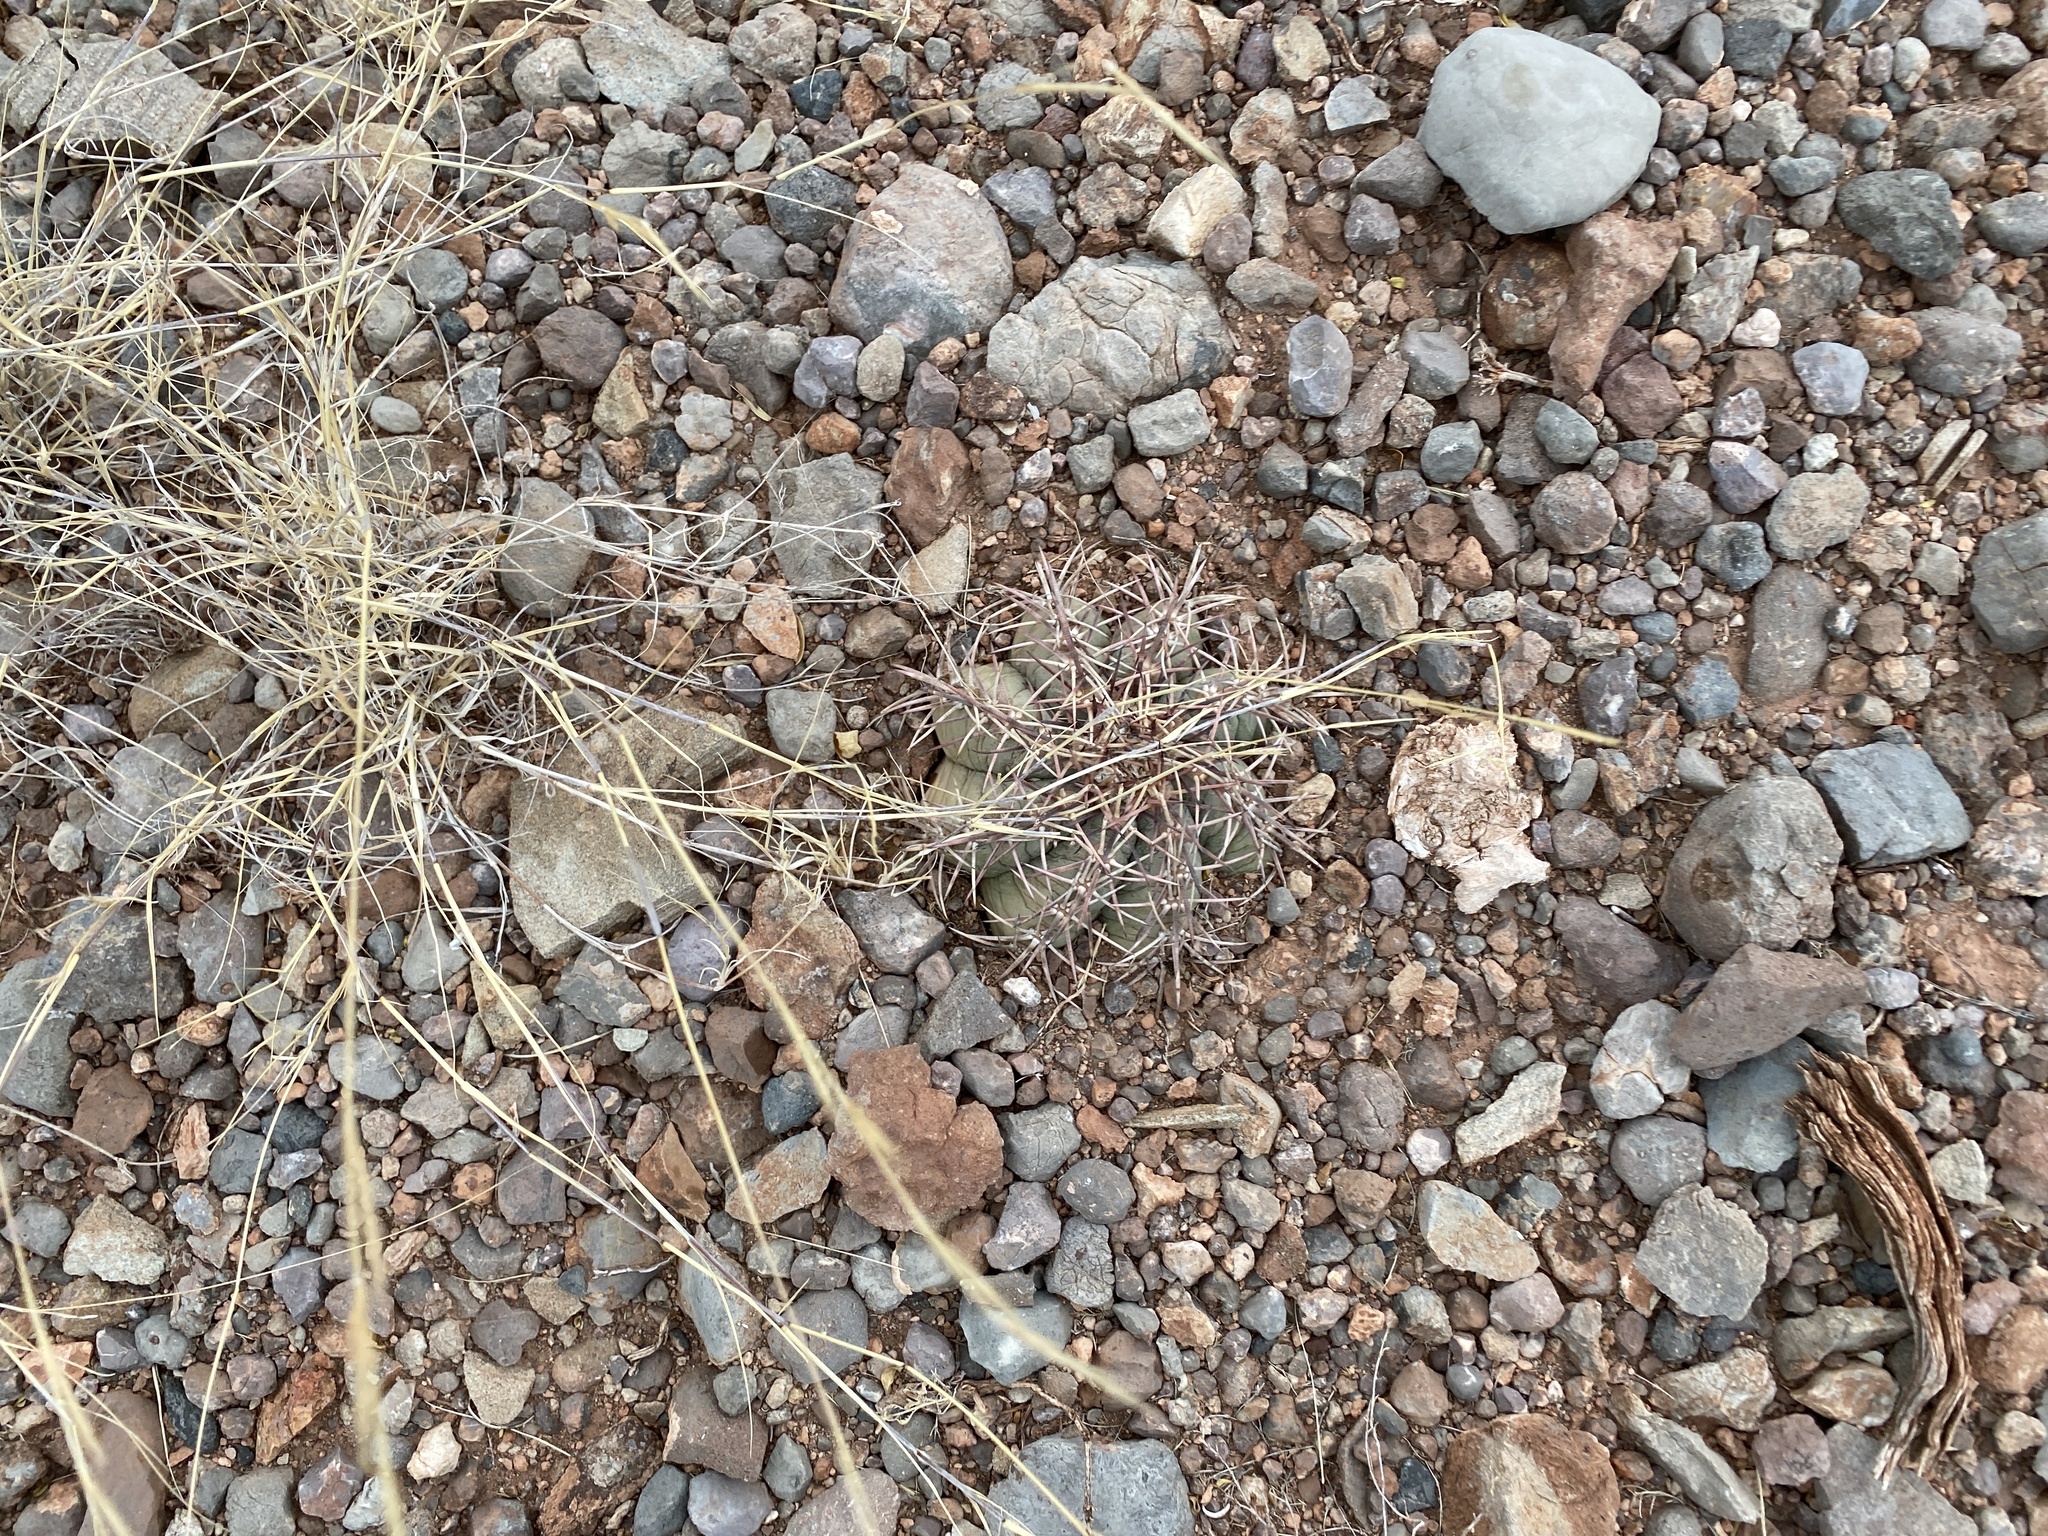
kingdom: Plantae
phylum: Tracheophyta
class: Magnoliopsida
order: Caryophyllales
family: Cactaceae
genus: Echinocactus
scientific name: Echinocactus horizonthalonius
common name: Devilshead
